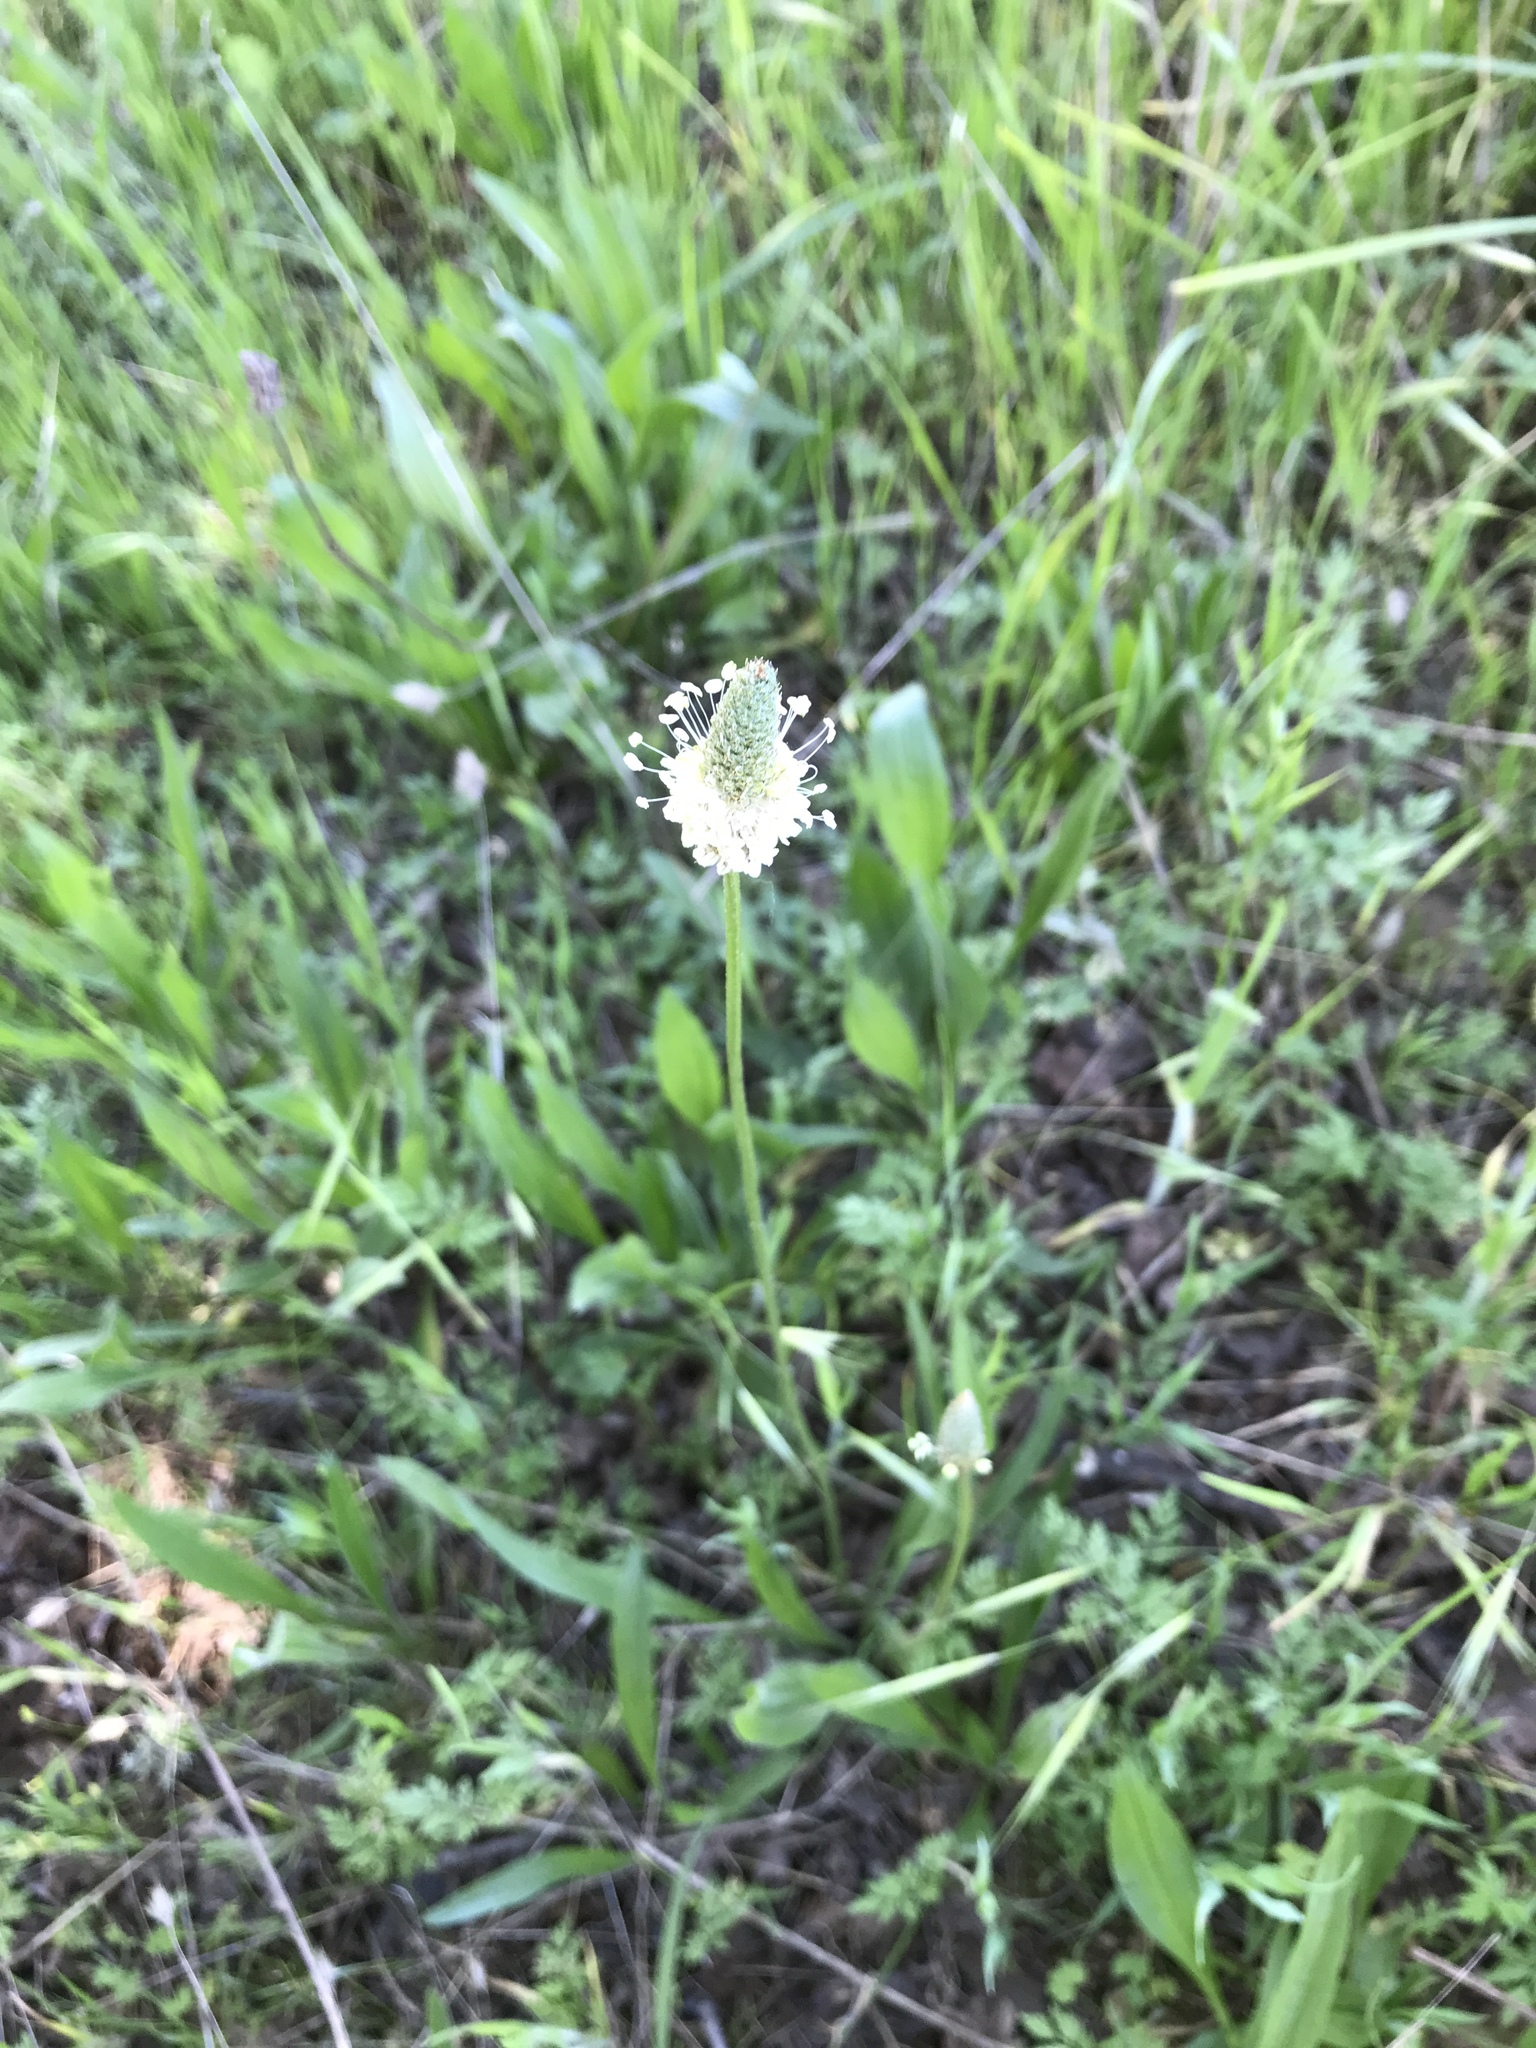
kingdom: Plantae
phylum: Tracheophyta
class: Magnoliopsida
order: Lamiales
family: Plantaginaceae
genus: Plantago
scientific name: Plantago lanceolata
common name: Ribwort plantain
